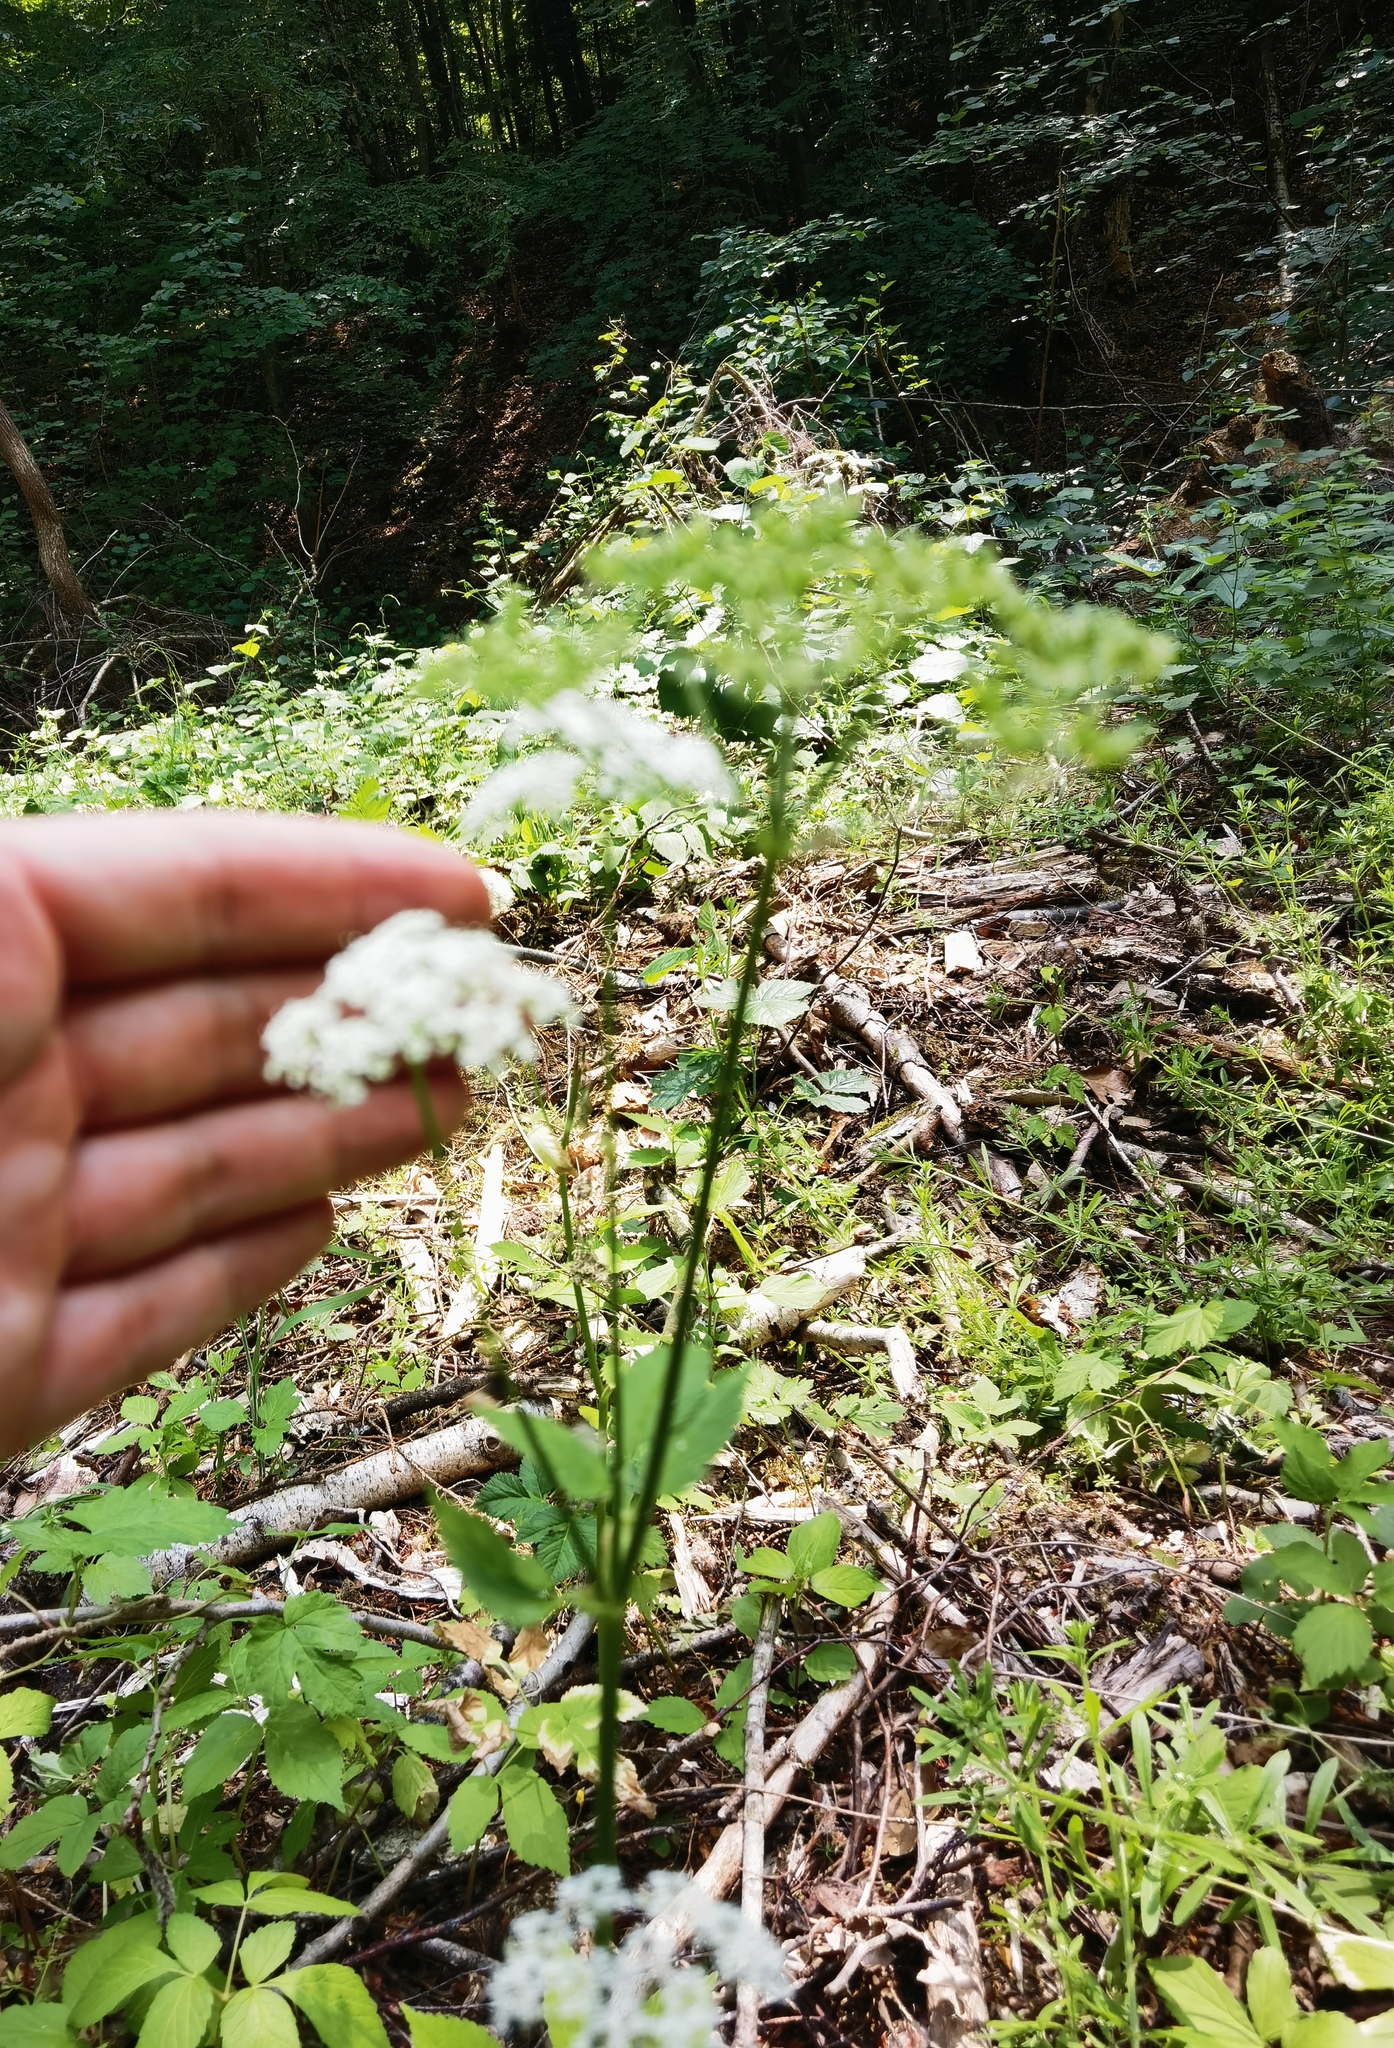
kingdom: Plantae
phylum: Tracheophyta
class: Magnoliopsida
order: Apiales
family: Apiaceae
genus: Aegopodium
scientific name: Aegopodium podagraria
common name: Ground-elder
